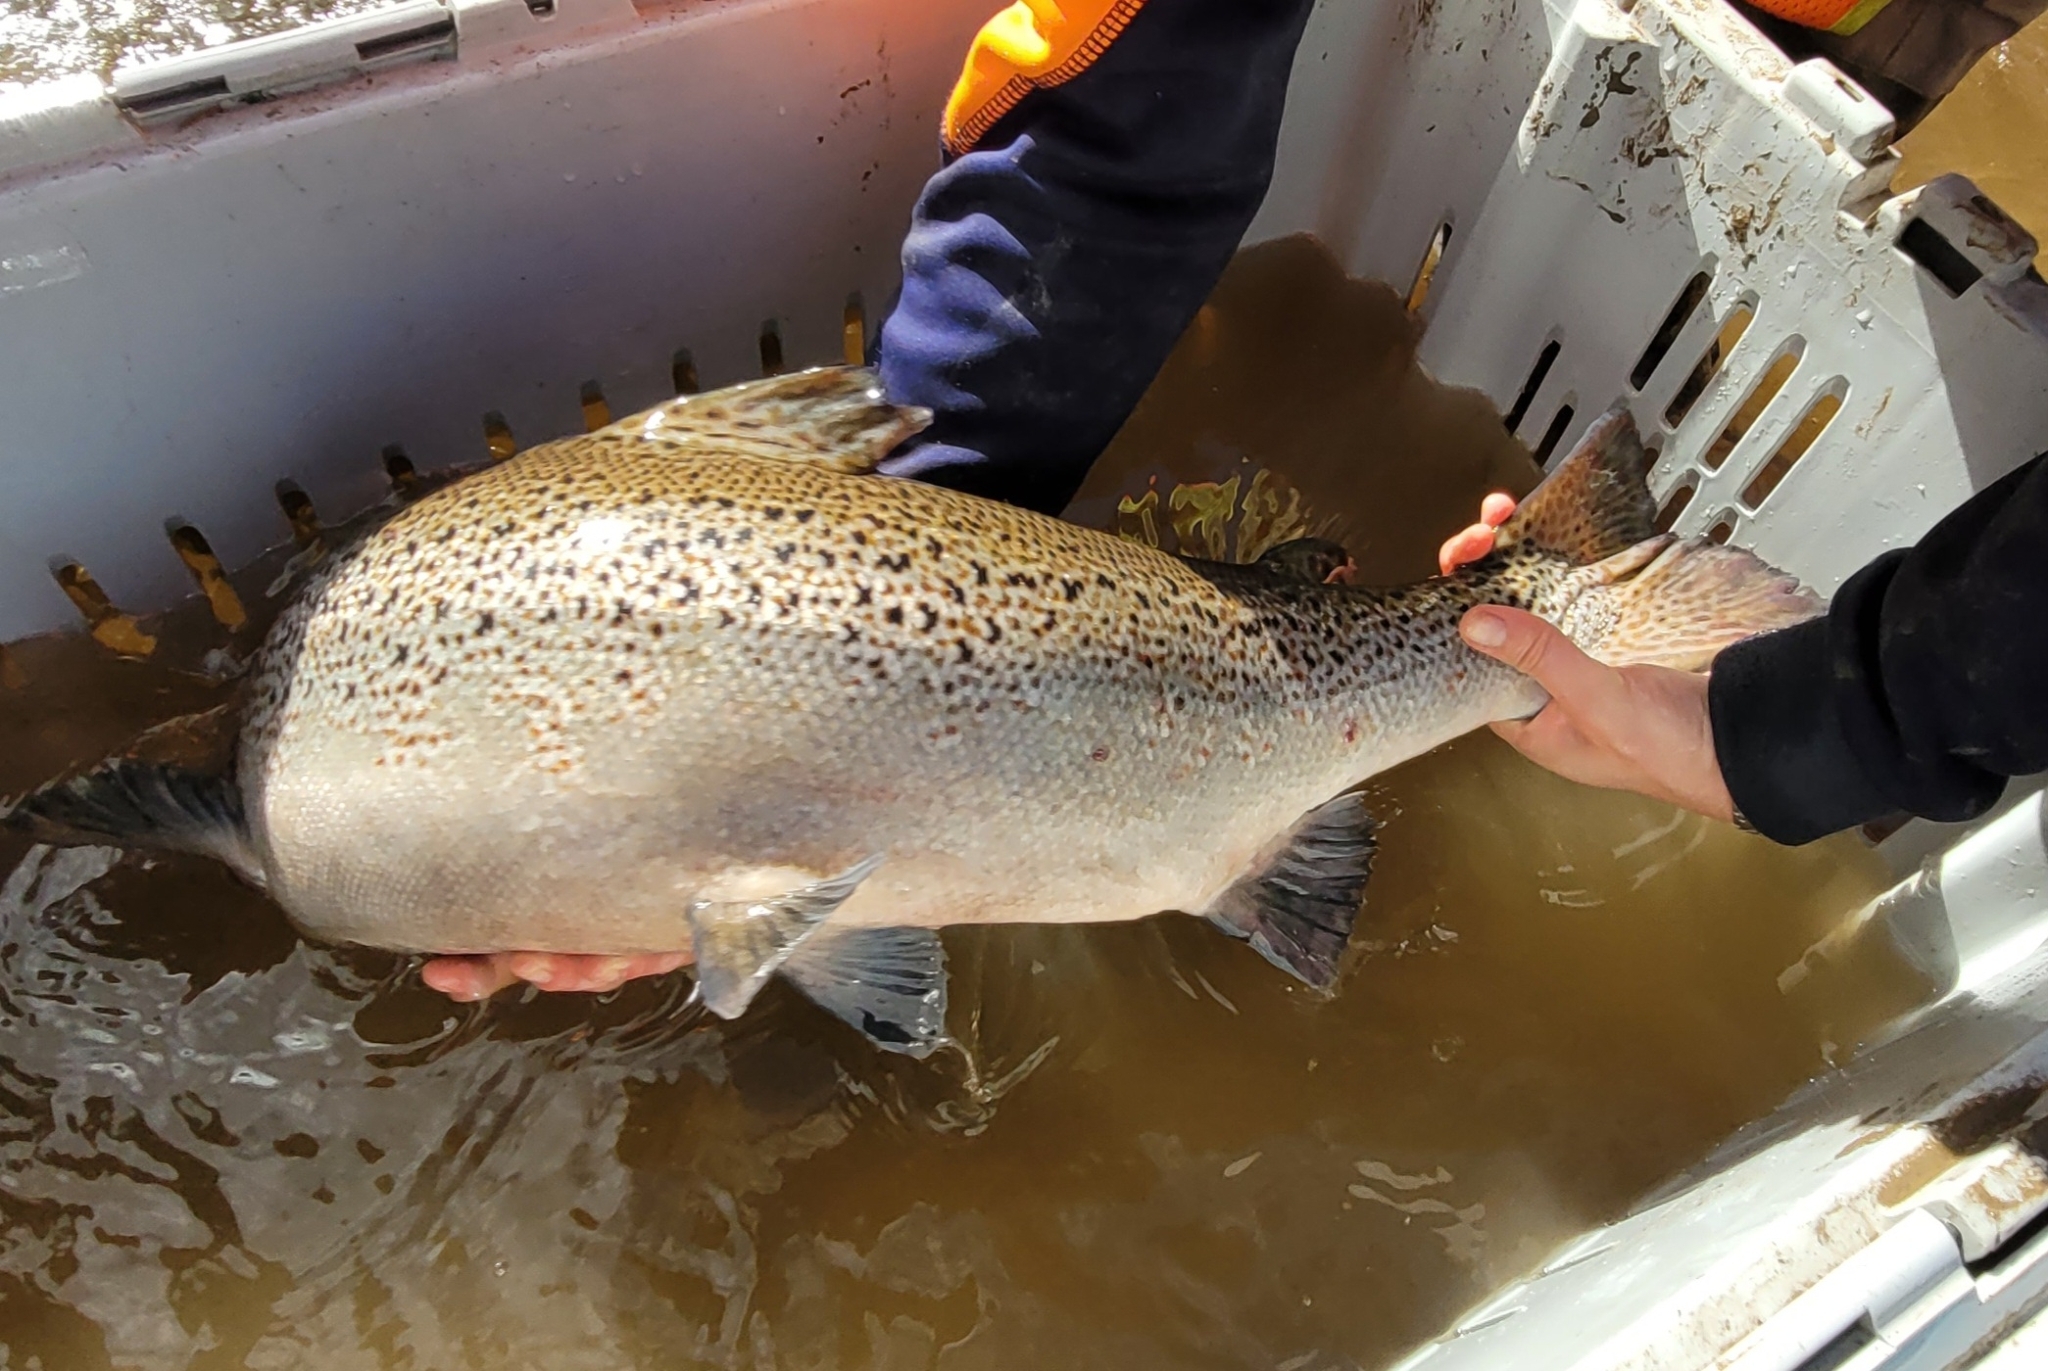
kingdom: Animalia
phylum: Chordata
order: Salmoniformes
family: Salmonidae
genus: Salmo
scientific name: Salmo salar
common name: Atlantic salmon
